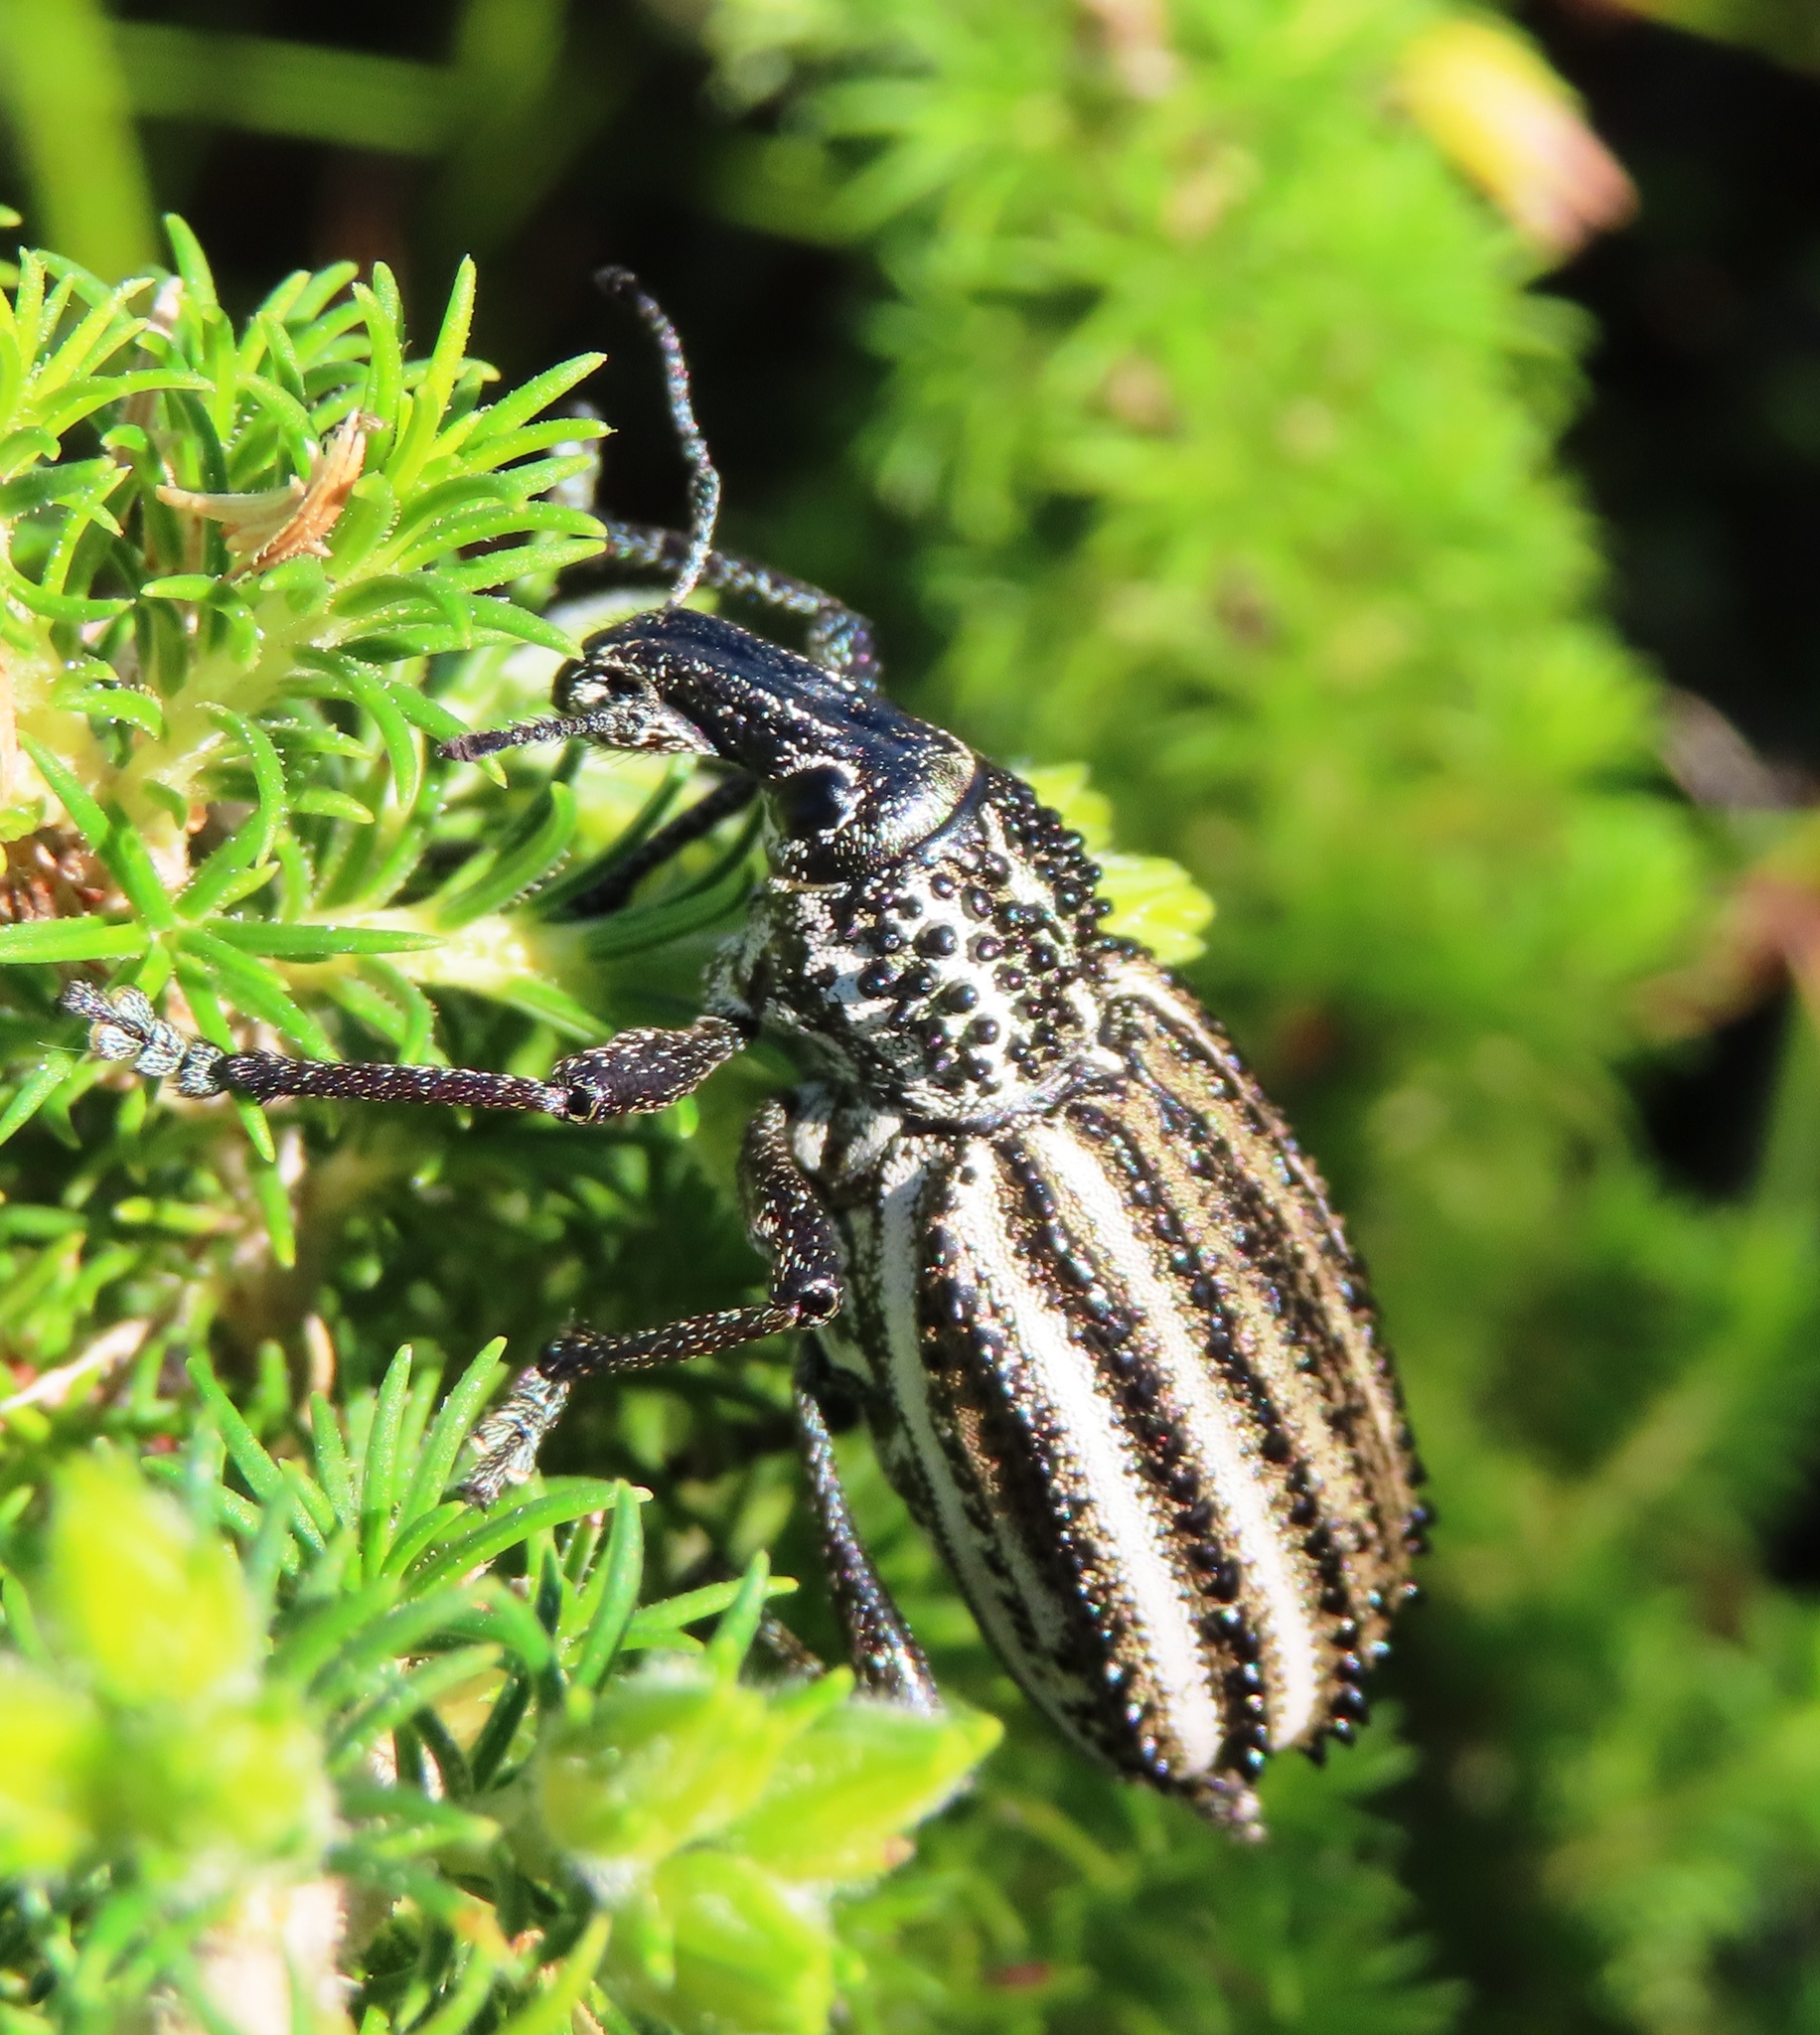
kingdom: Animalia
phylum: Arthropoda
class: Insecta
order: Coleoptera
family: Curculionidae
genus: Bronchus
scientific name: Bronchus
